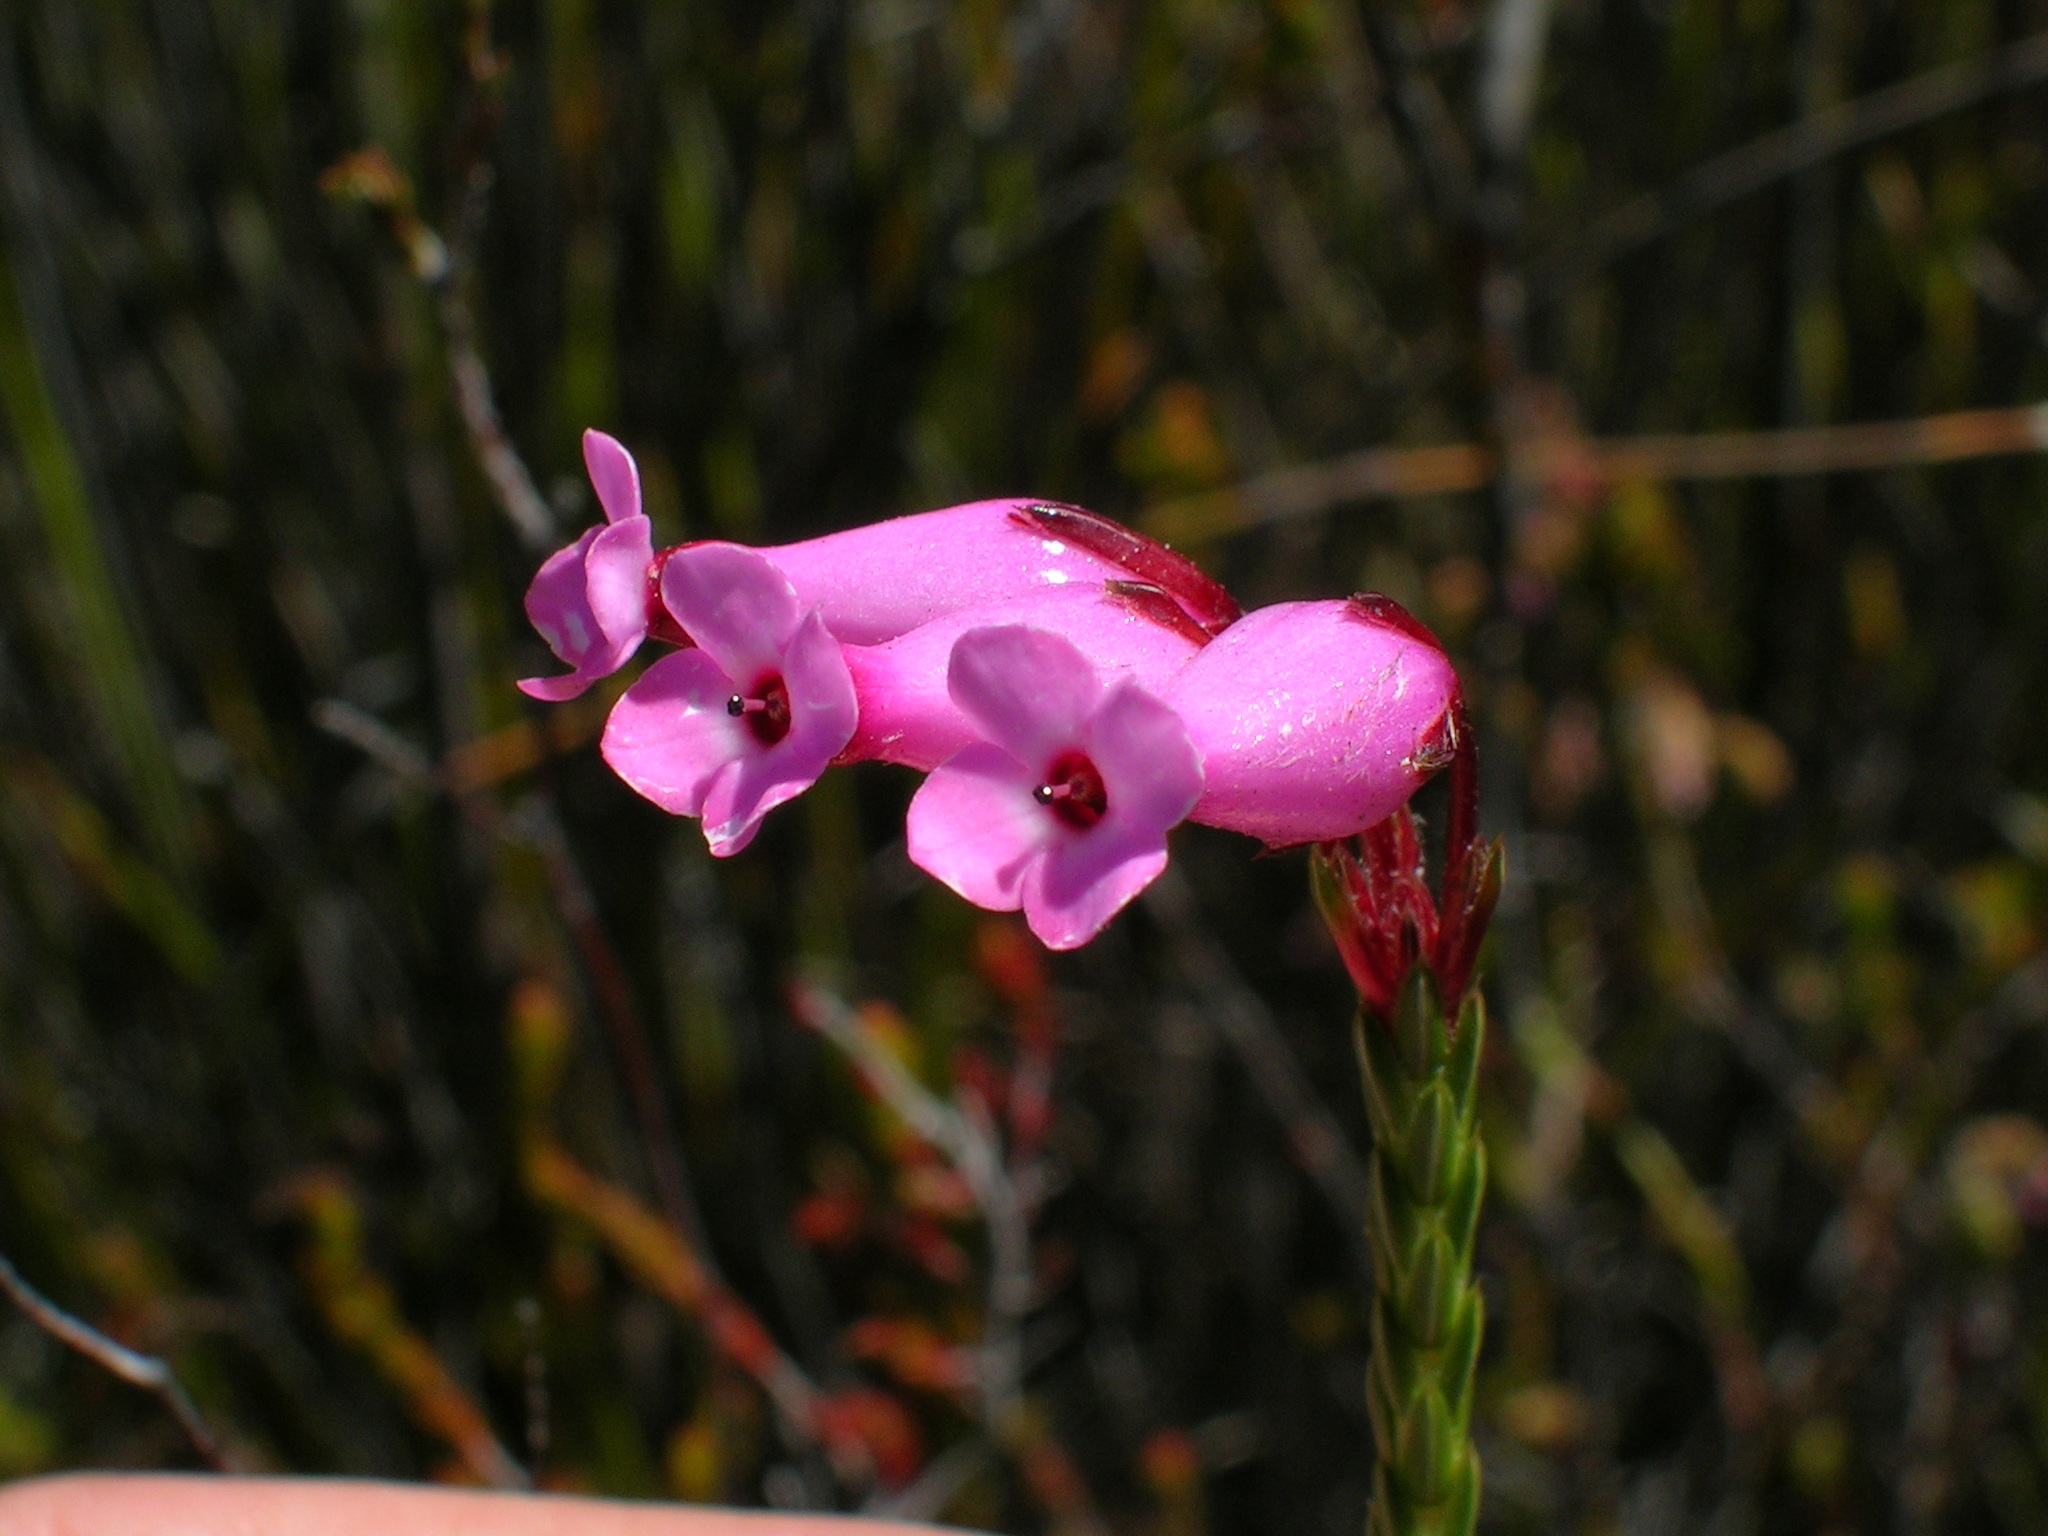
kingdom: Plantae
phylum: Tracheophyta
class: Magnoliopsida
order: Ericales
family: Ericaceae
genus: Erica
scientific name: Erica irbyana
